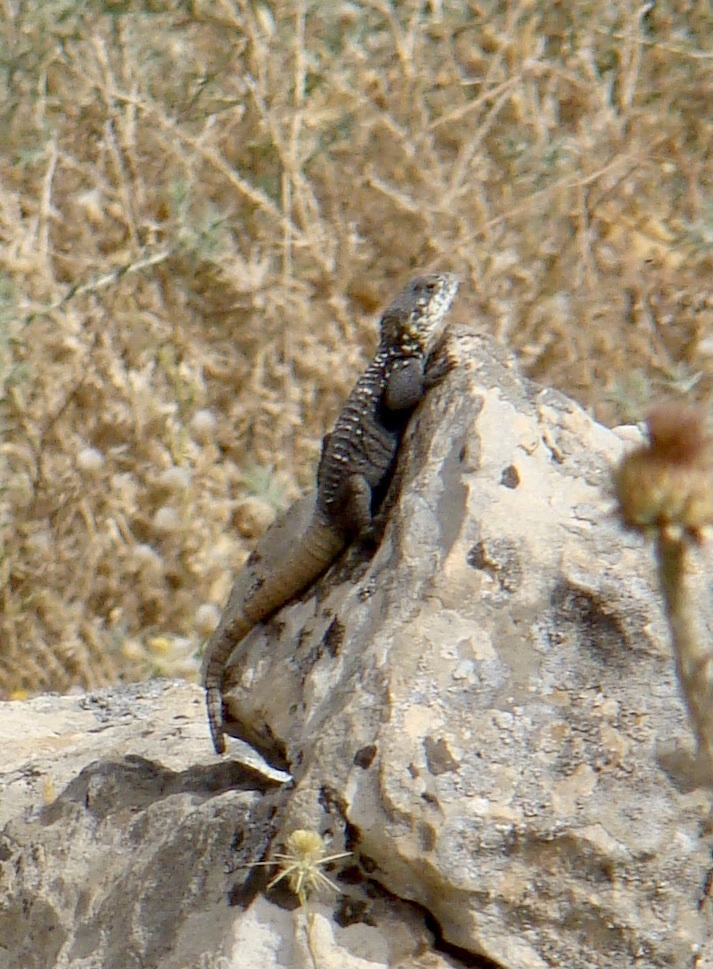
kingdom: Animalia
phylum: Chordata
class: Squamata
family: Agamidae
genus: Stellagama
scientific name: Stellagama stellio
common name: Starred agama
